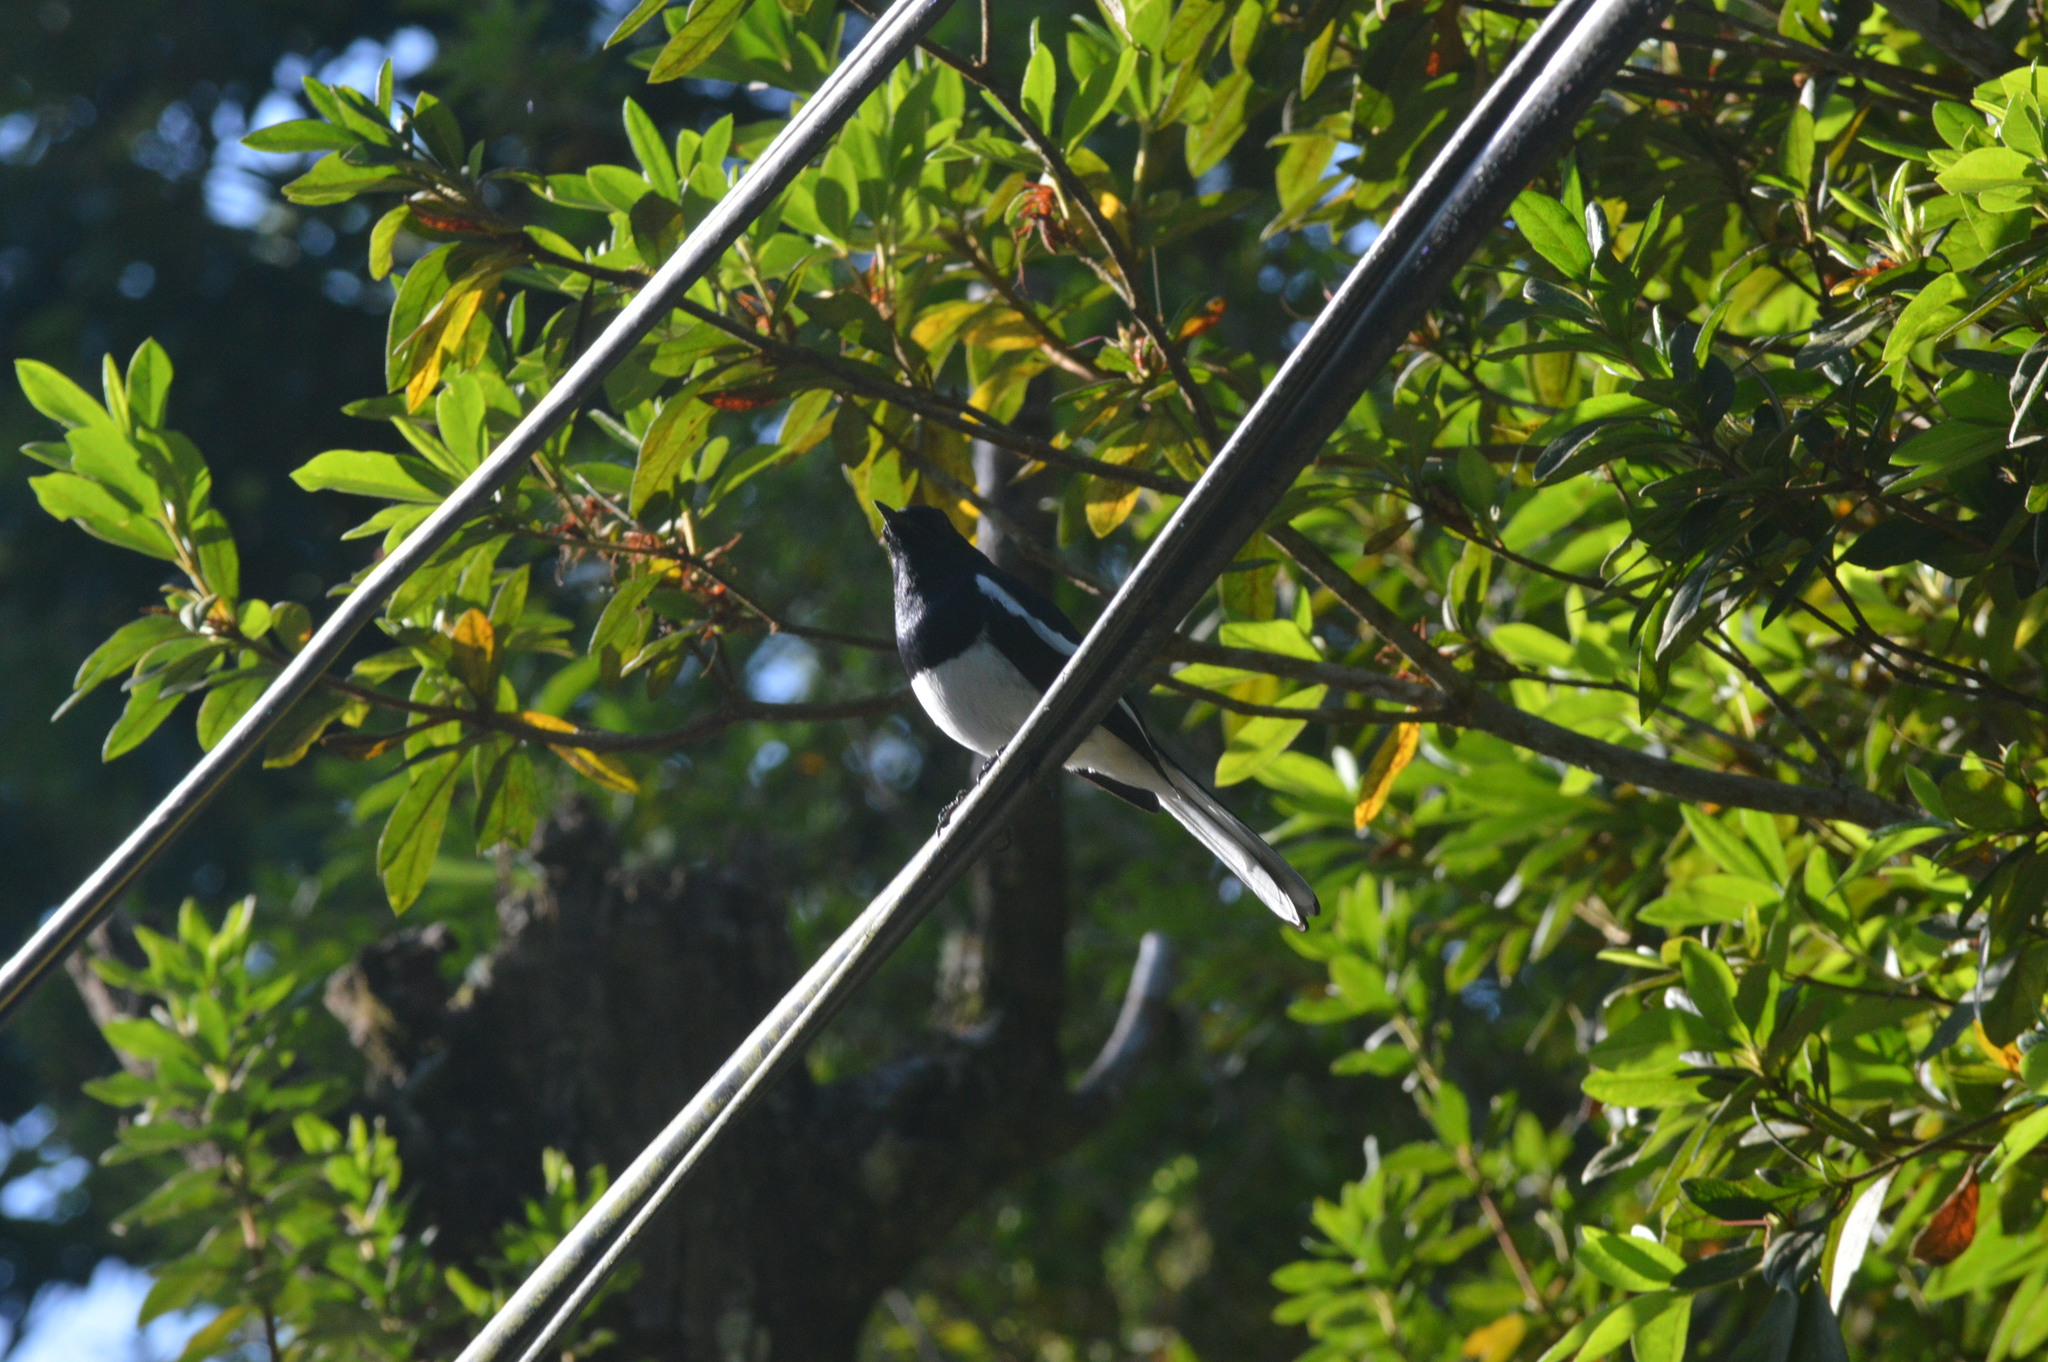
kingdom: Animalia
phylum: Chordata
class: Aves
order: Passeriformes
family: Muscicapidae
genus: Copsychus
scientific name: Copsychus saularis
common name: Oriental magpie-robin
